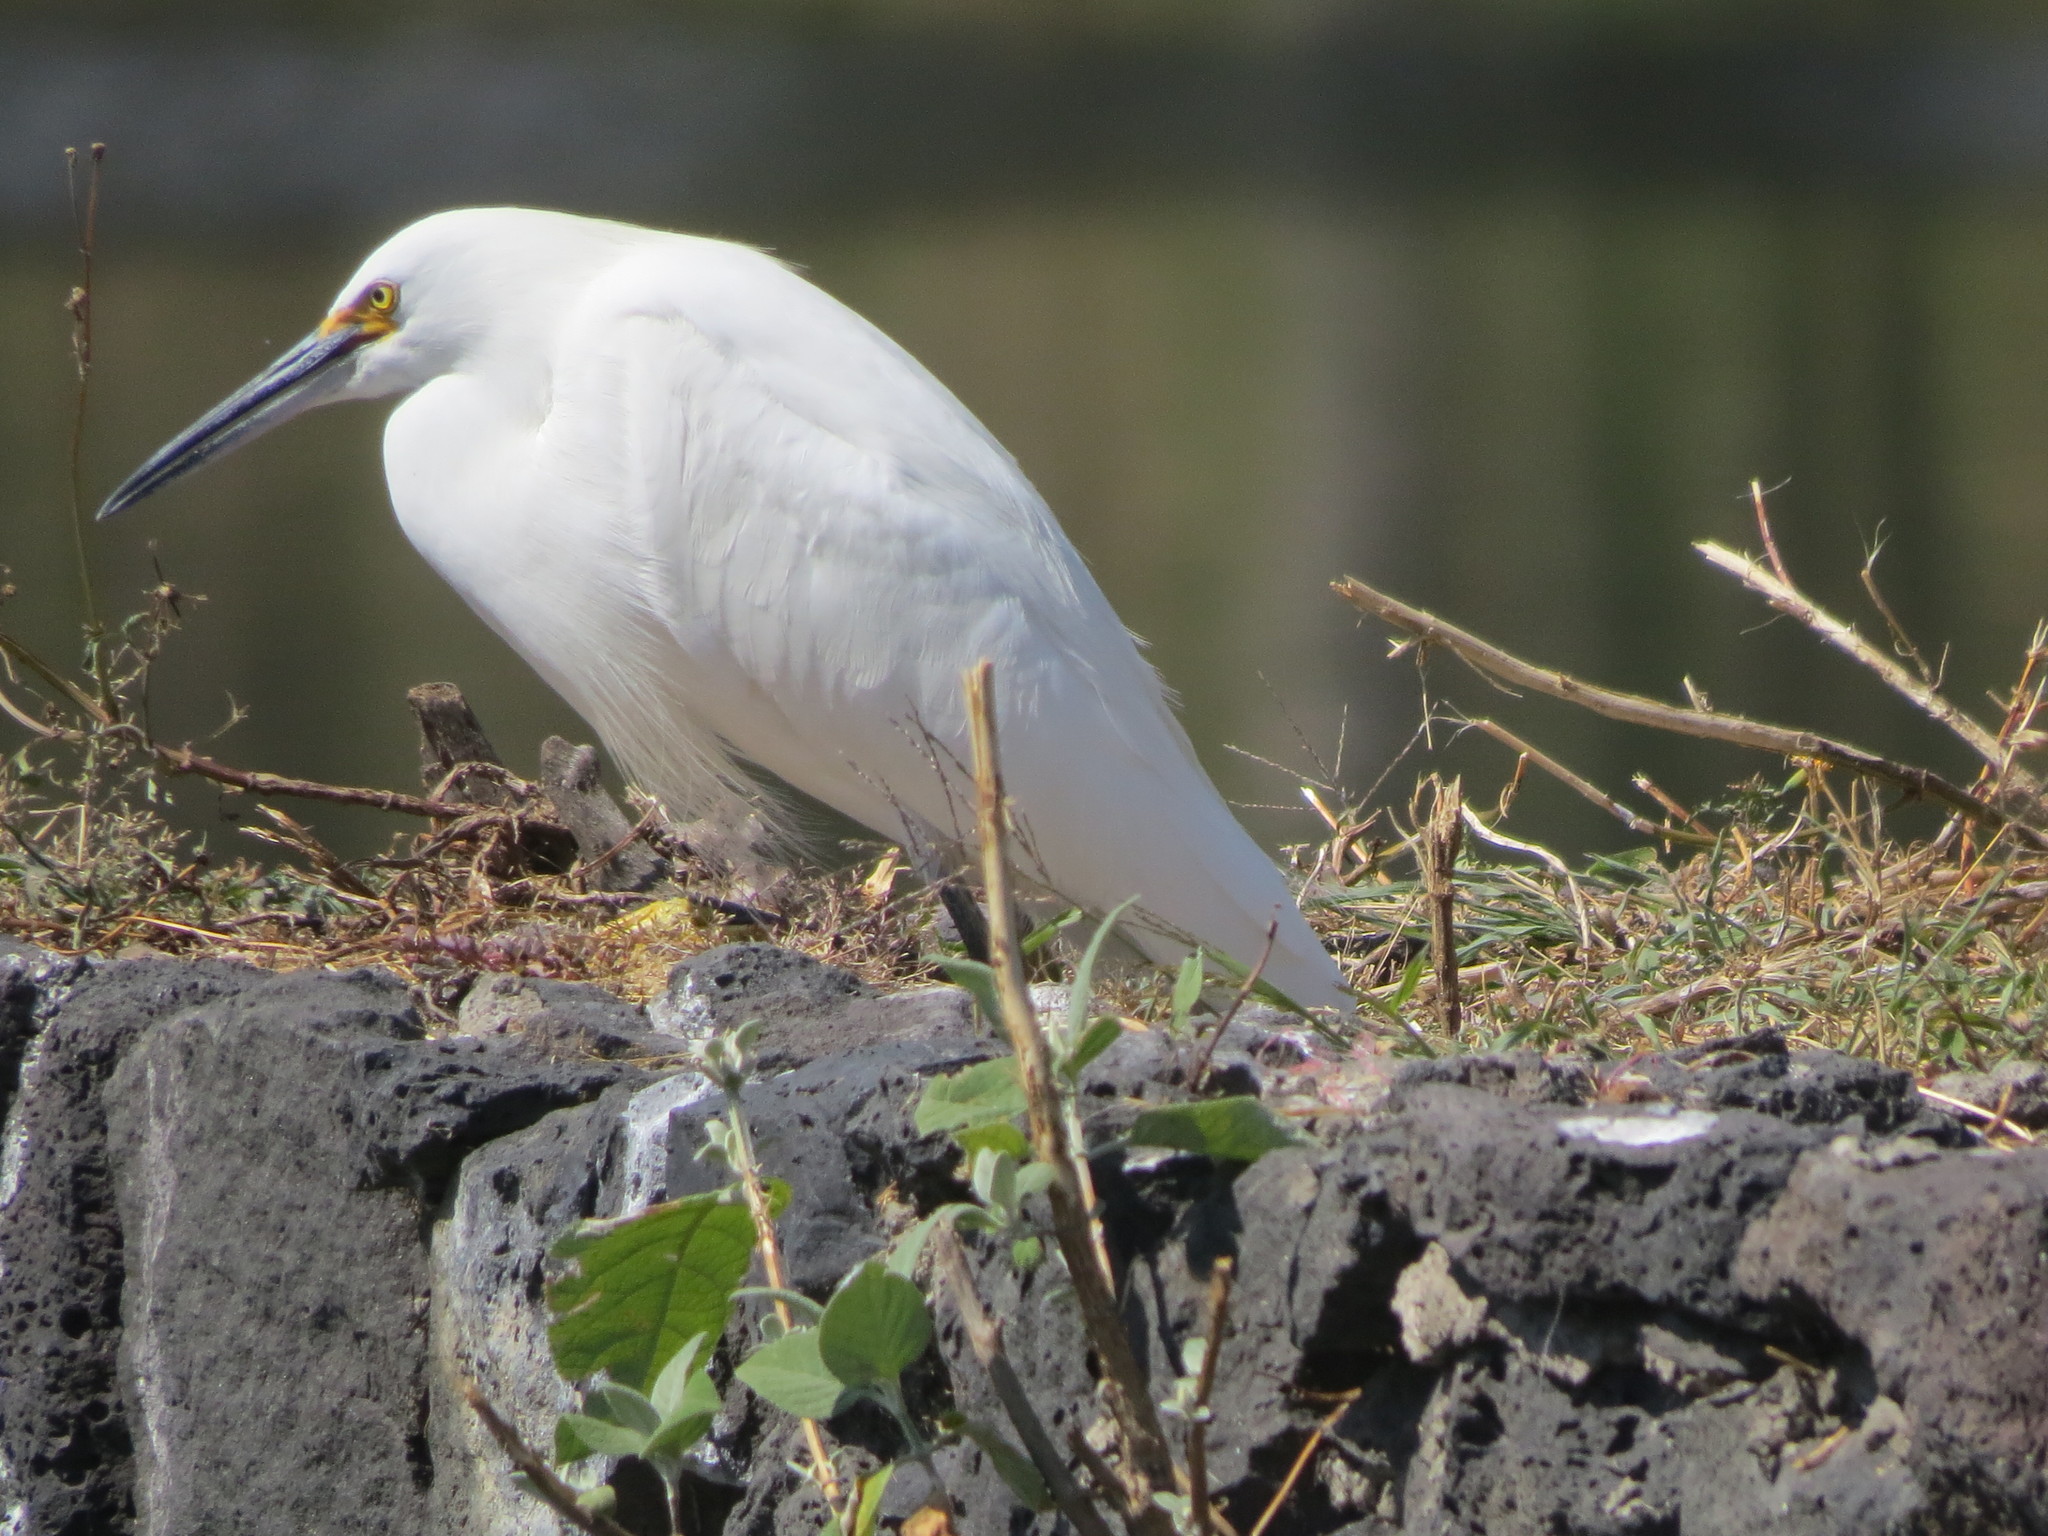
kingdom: Animalia
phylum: Chordata
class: Aves
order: Pelecaniformes
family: Ardeidae
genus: Egretta
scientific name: Egretta thula
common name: Snowy egret
